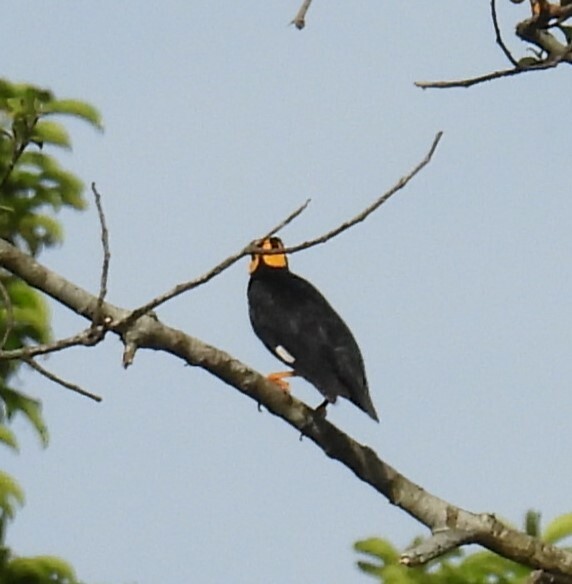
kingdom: Animalia
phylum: Chordata
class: Aves
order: Passeriformes
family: Sturnidae
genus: Gracula
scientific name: Gracula indica
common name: Southern hill myna
